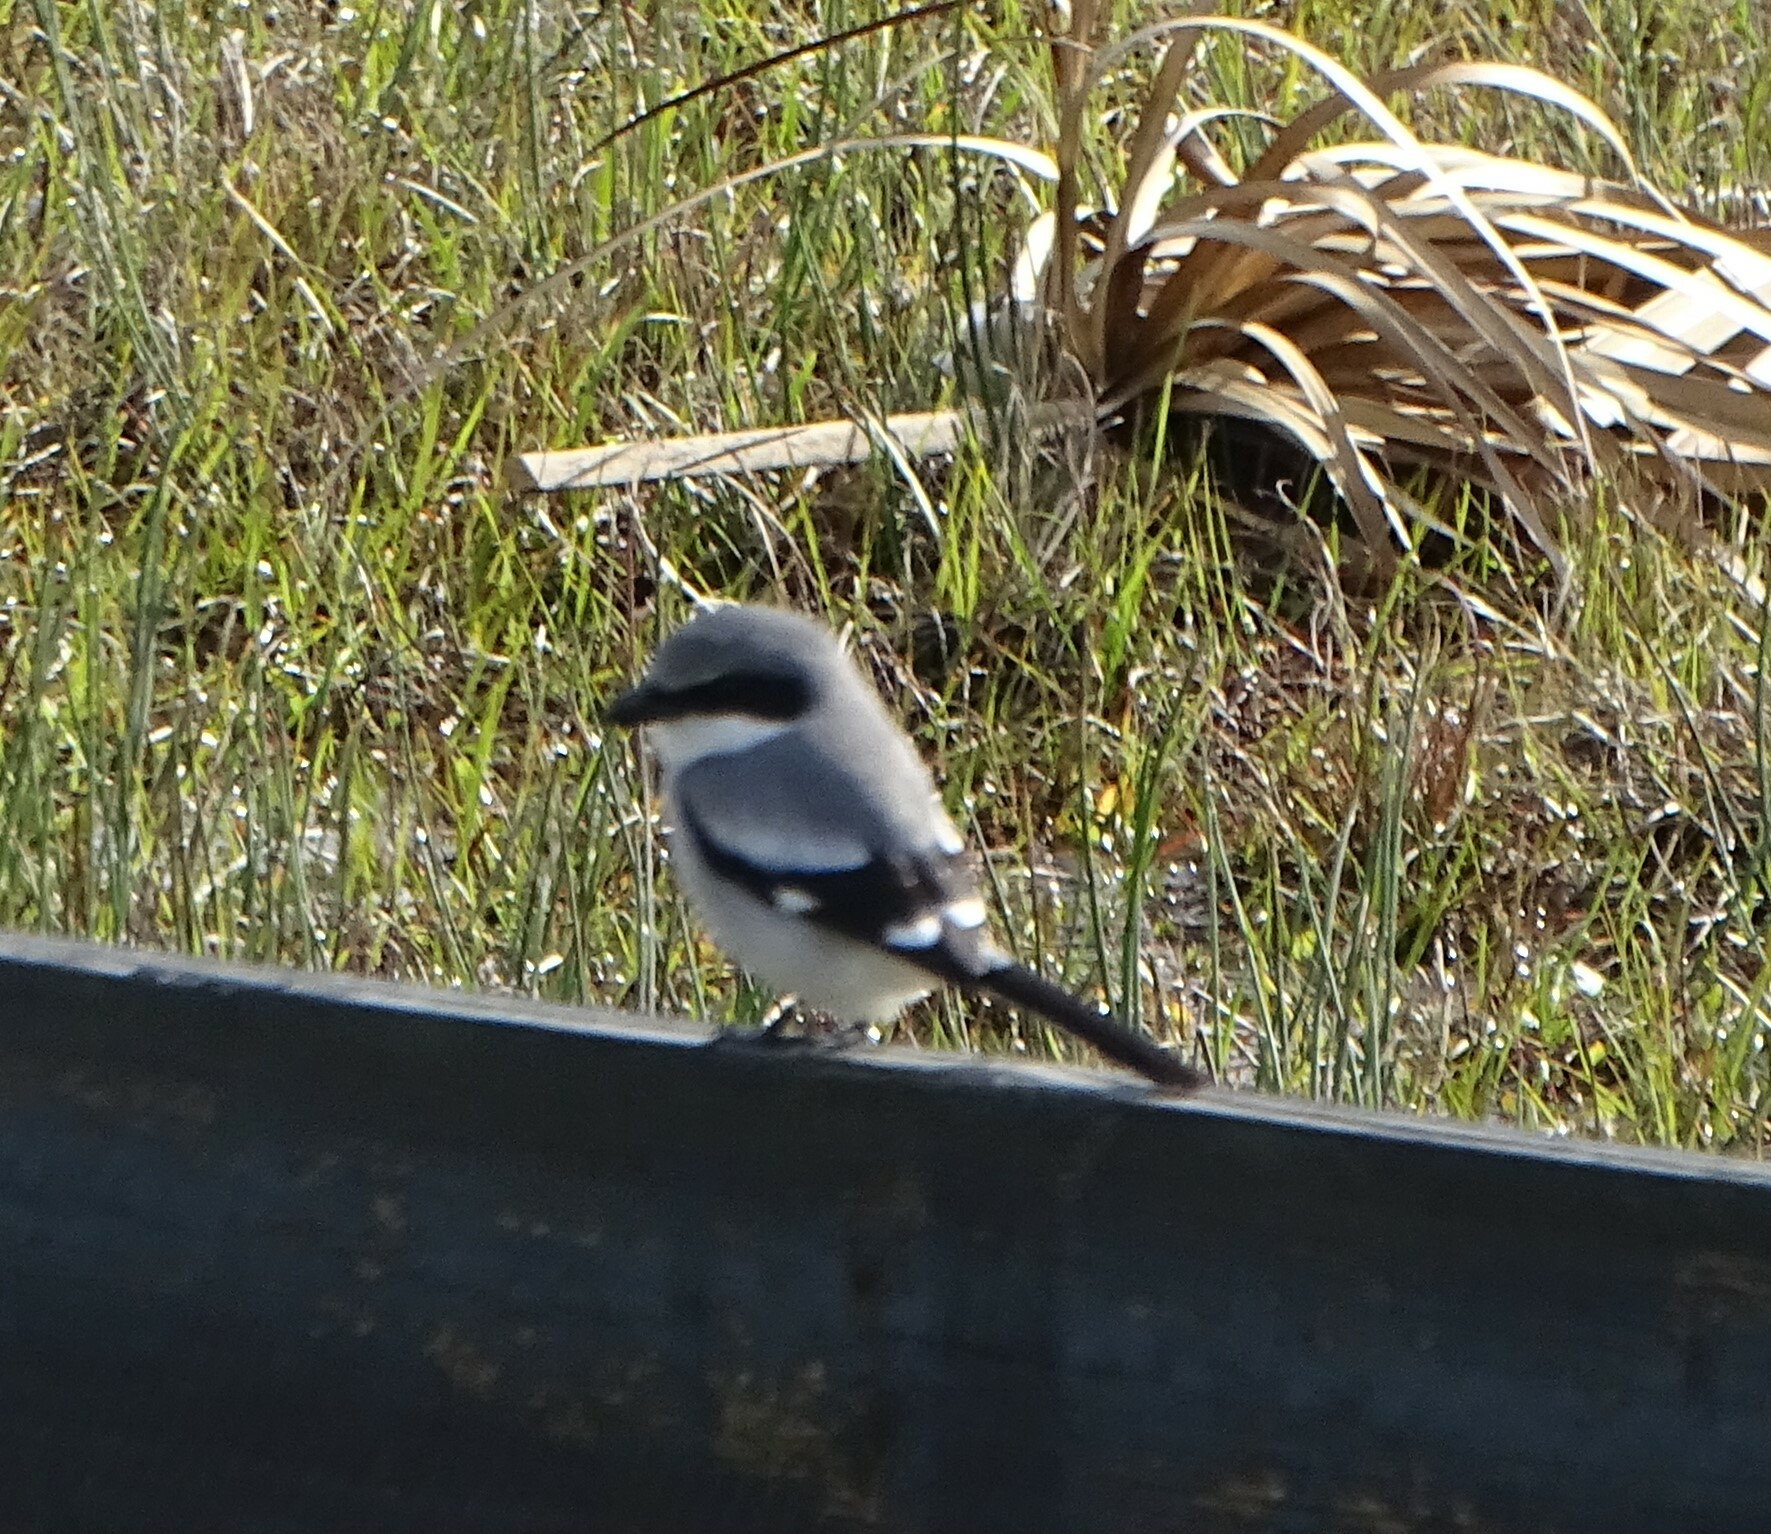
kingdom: Animalia
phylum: Chordata
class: Aves
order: Passeriformes
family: Laniidae
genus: Lanius
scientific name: Lanius ludovicianus
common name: Loggerhead shrike
